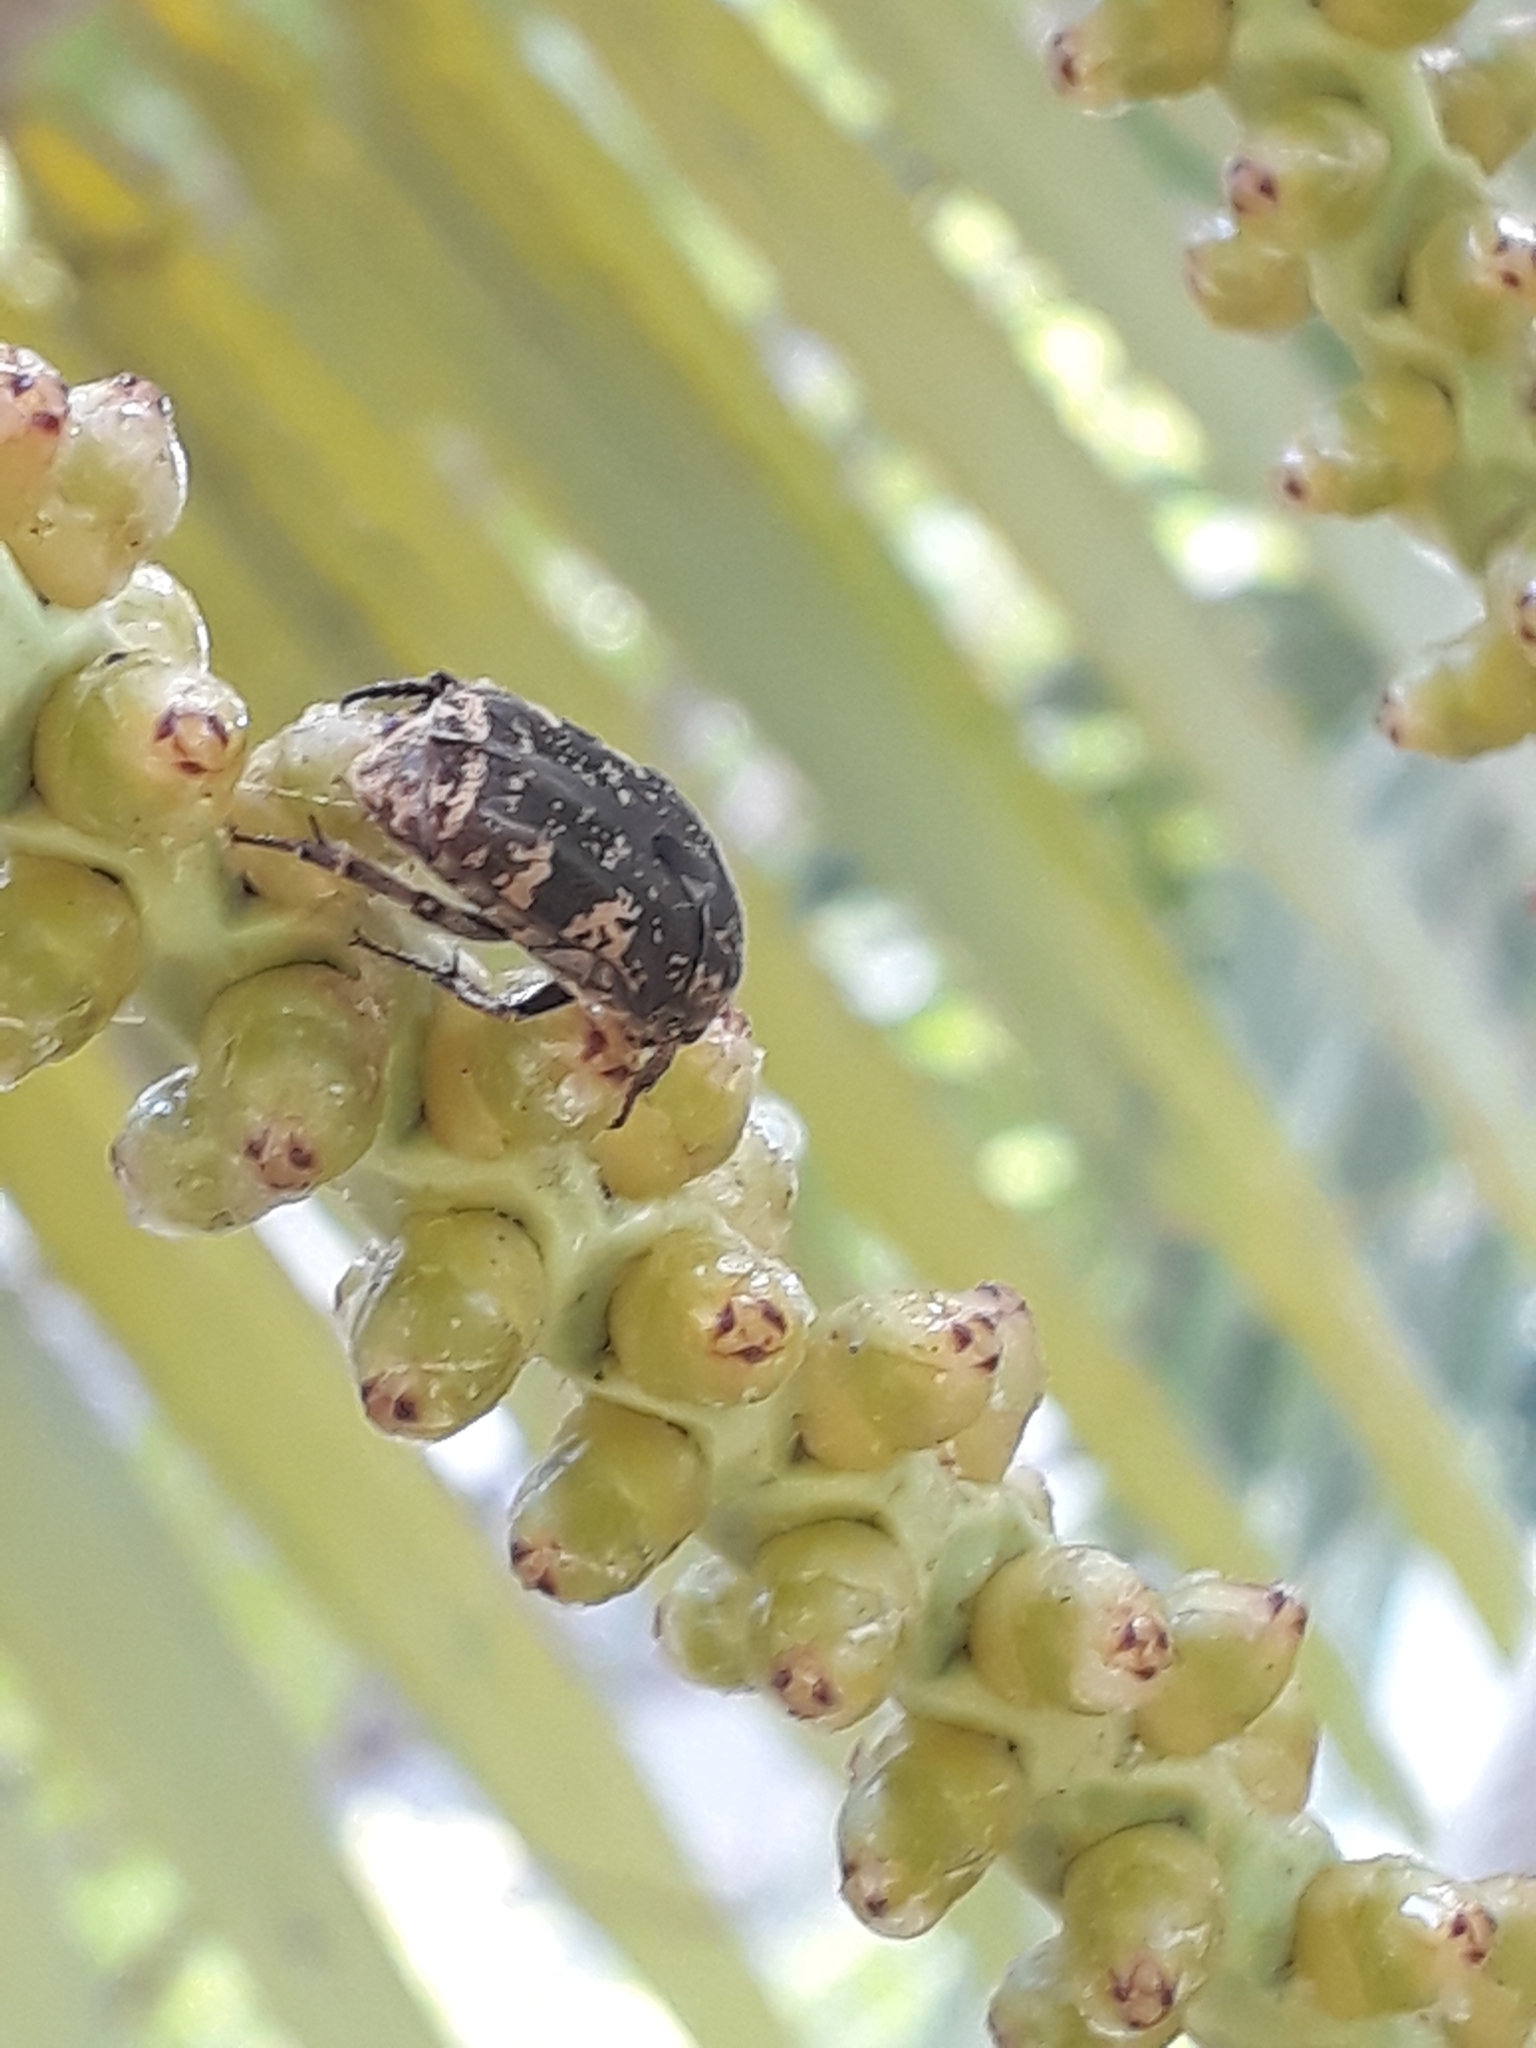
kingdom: Animalia
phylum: Arthropoda
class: Insecta
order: Coleoptera
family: Scarabaeidae
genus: Protaetia
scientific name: Protaetia fusca
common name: Mango flower beetle
